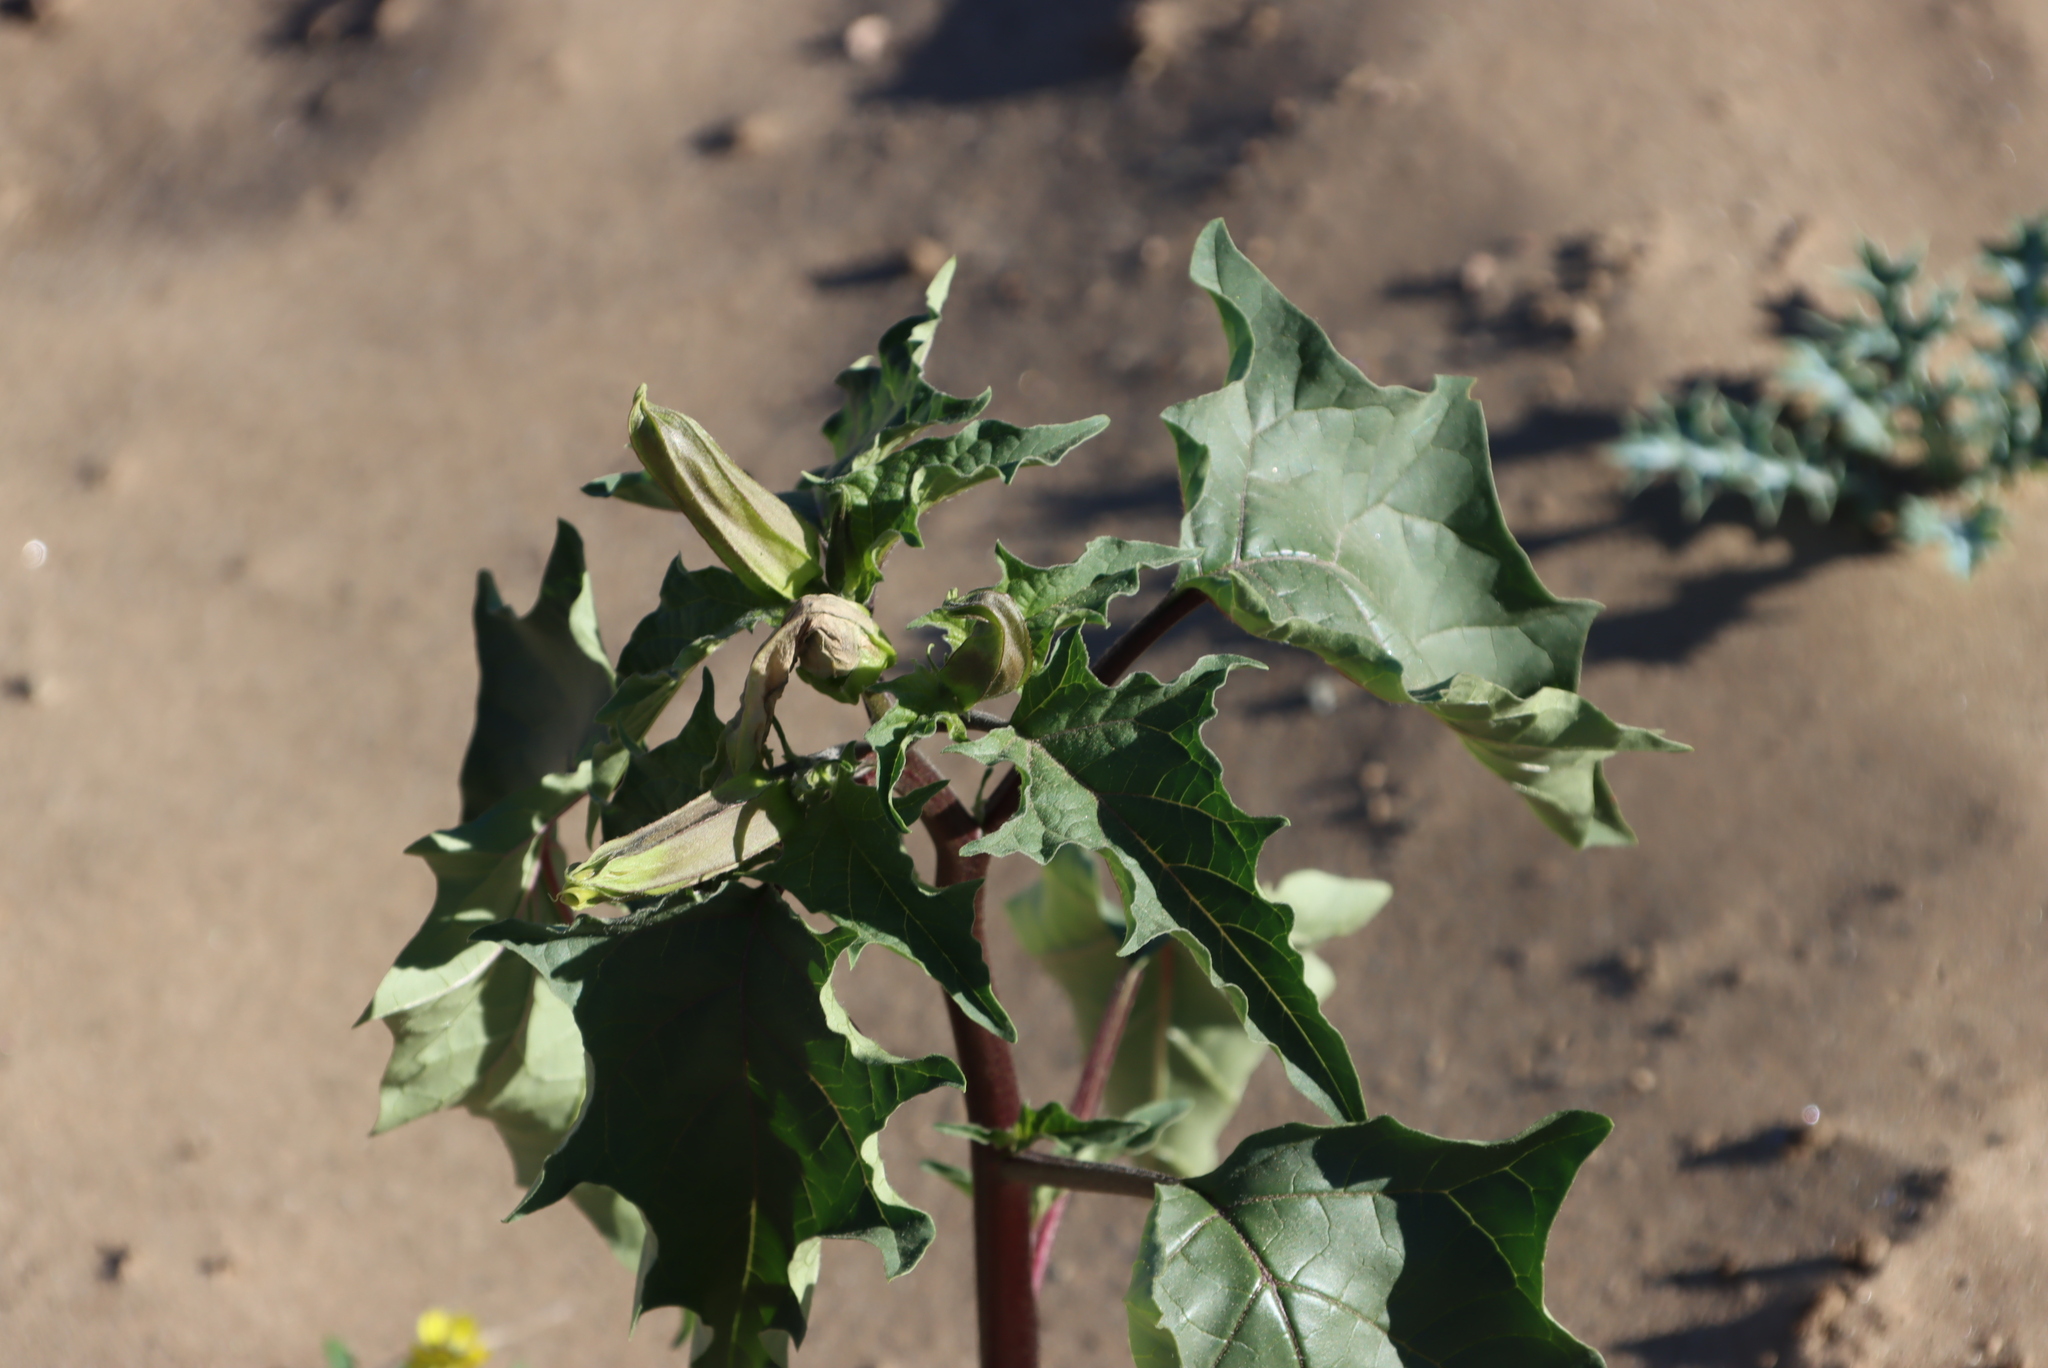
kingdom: Plantae
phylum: Tracheophyta
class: Magnoliopsida
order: Solanales
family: Solanaceae
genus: Datura
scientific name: Datura stramonium
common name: Thorn-apple
